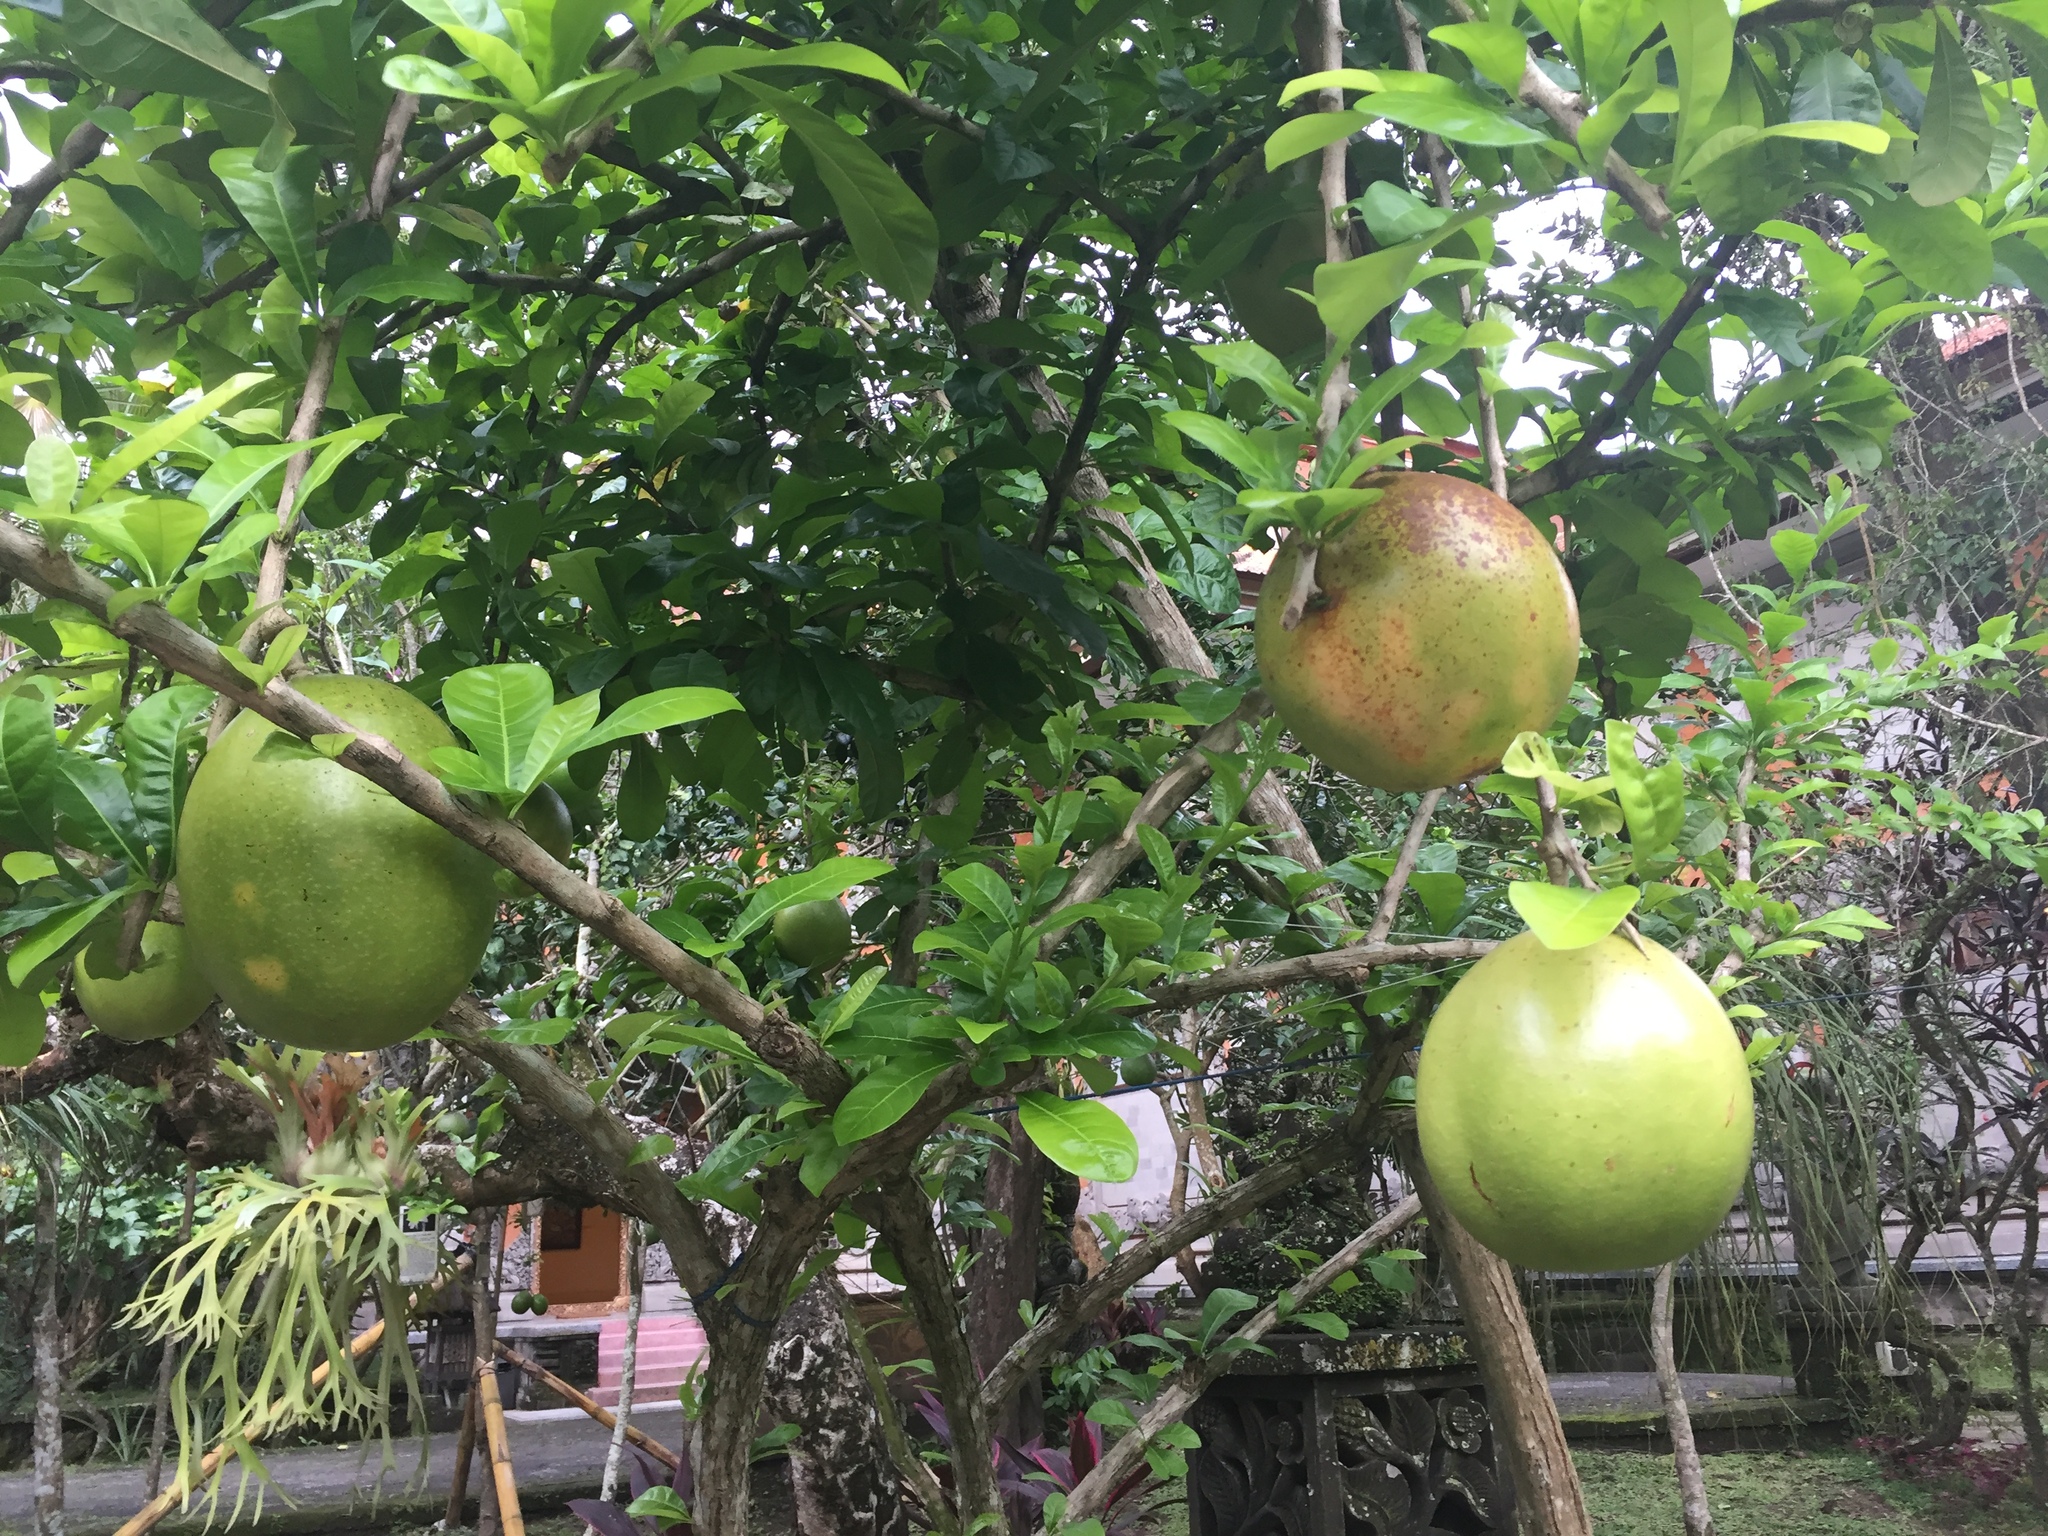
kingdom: Plantae
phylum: Tracheophyta
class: Magnoliopsida
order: Lamiales
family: Bignoniaceae
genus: Crescentia
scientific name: Crescentia cujete
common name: Calabash
